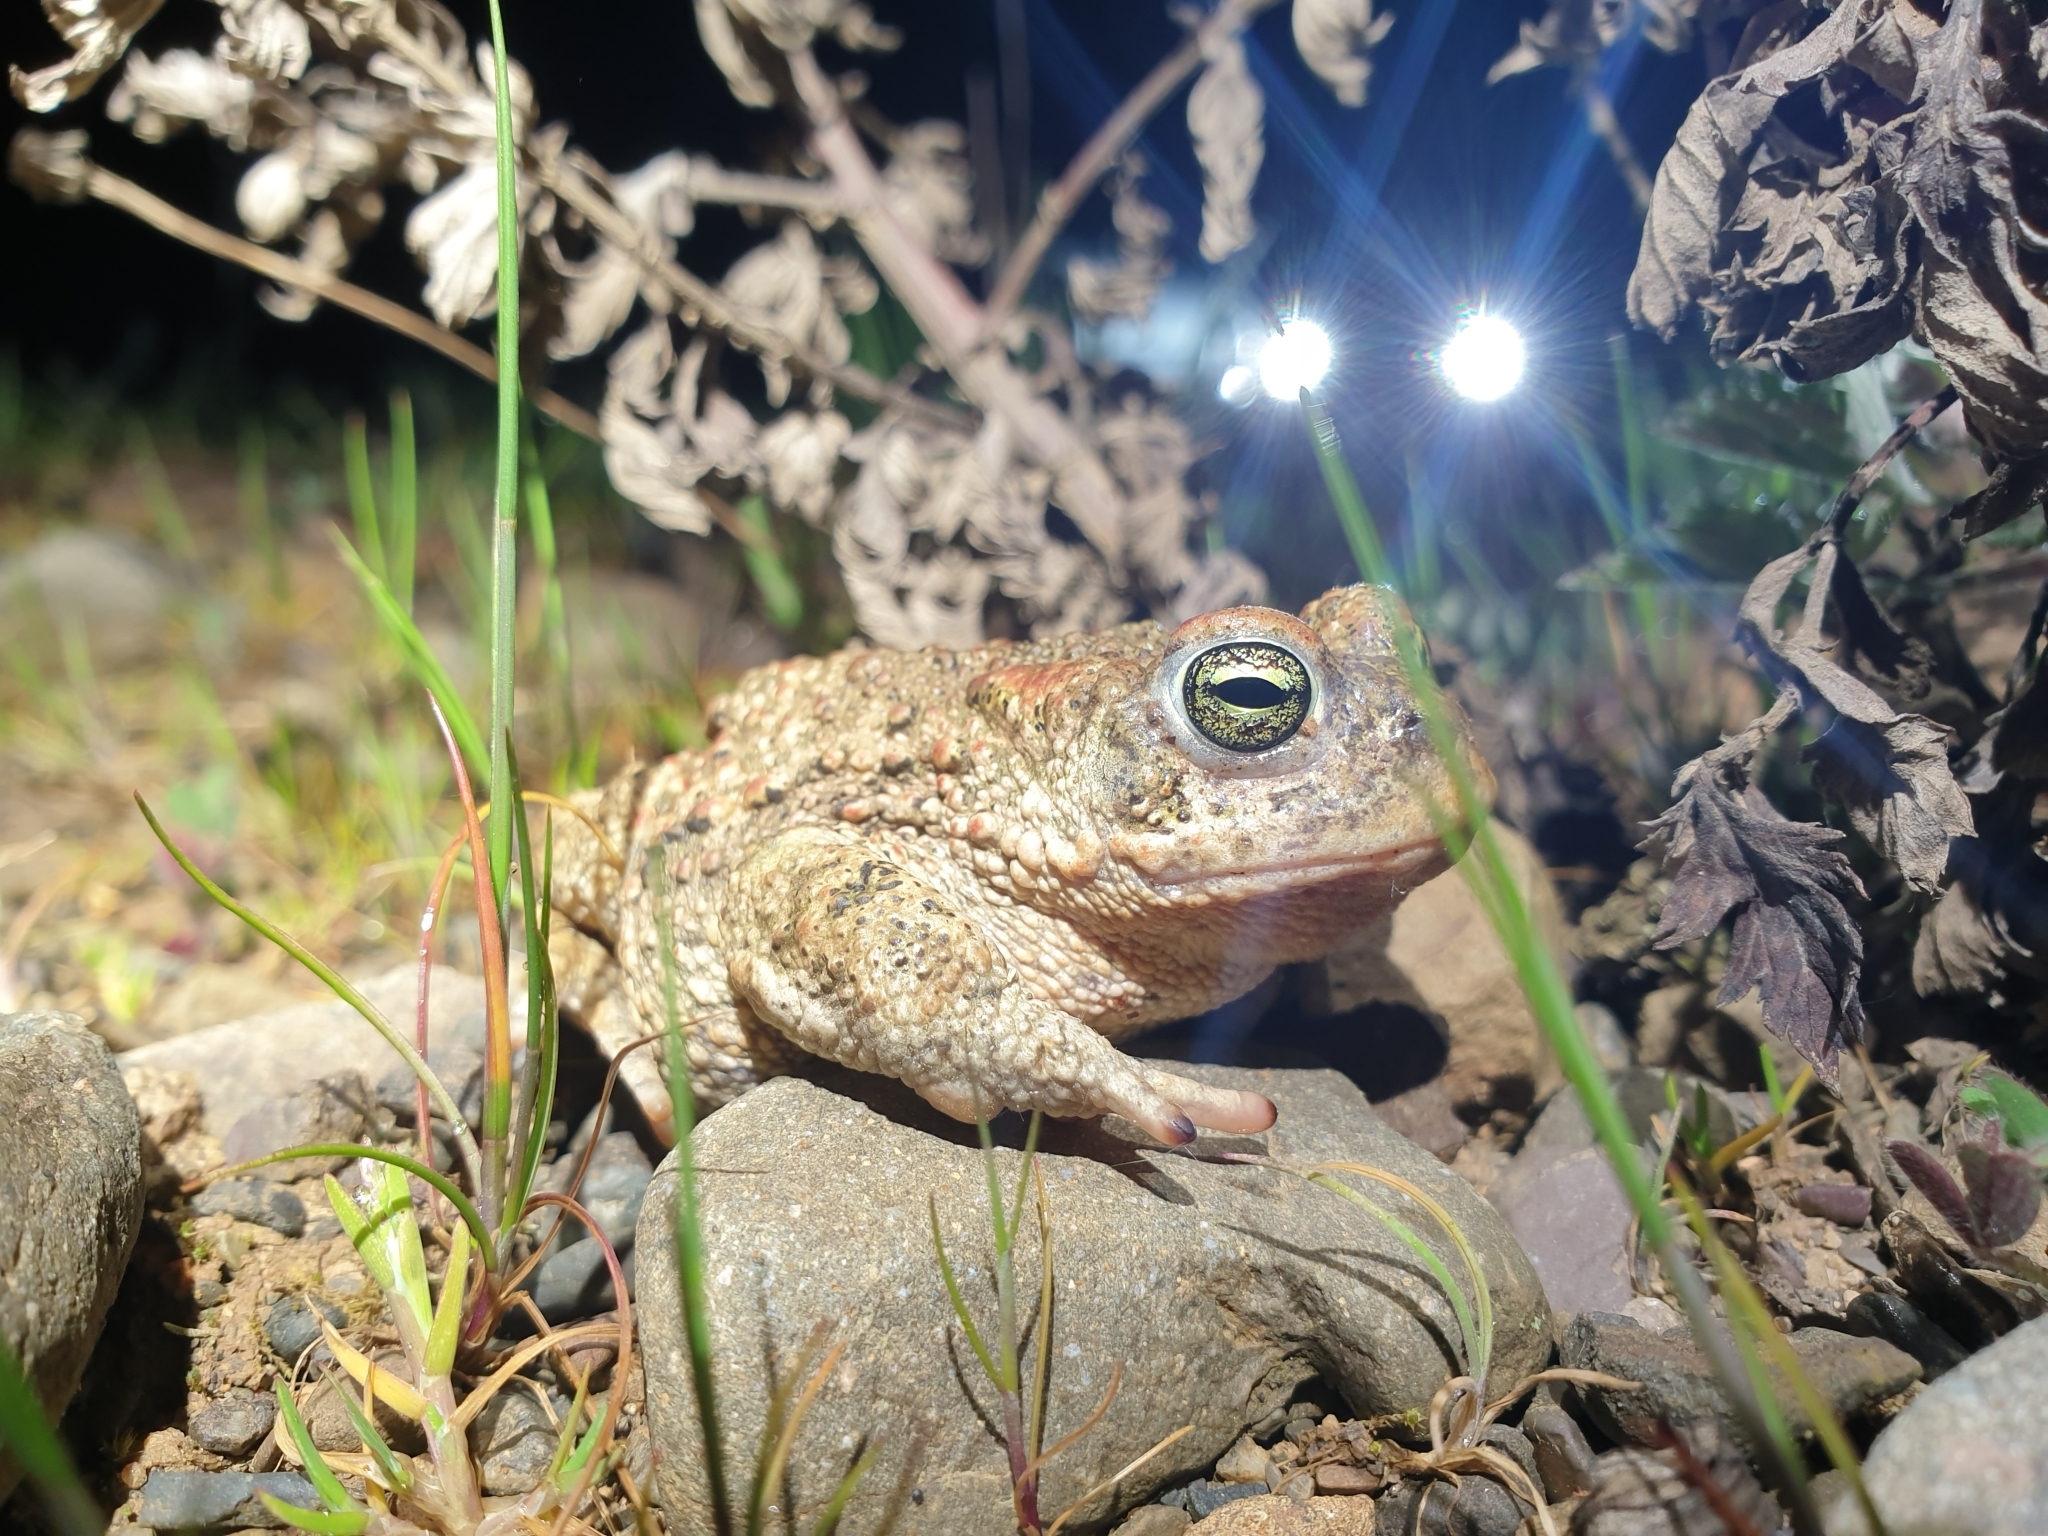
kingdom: Animalia
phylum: Chordata
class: Amphibia
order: Anura
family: Bufonidae
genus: Epidalea
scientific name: Epidalea calamita
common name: Natterjack toad
